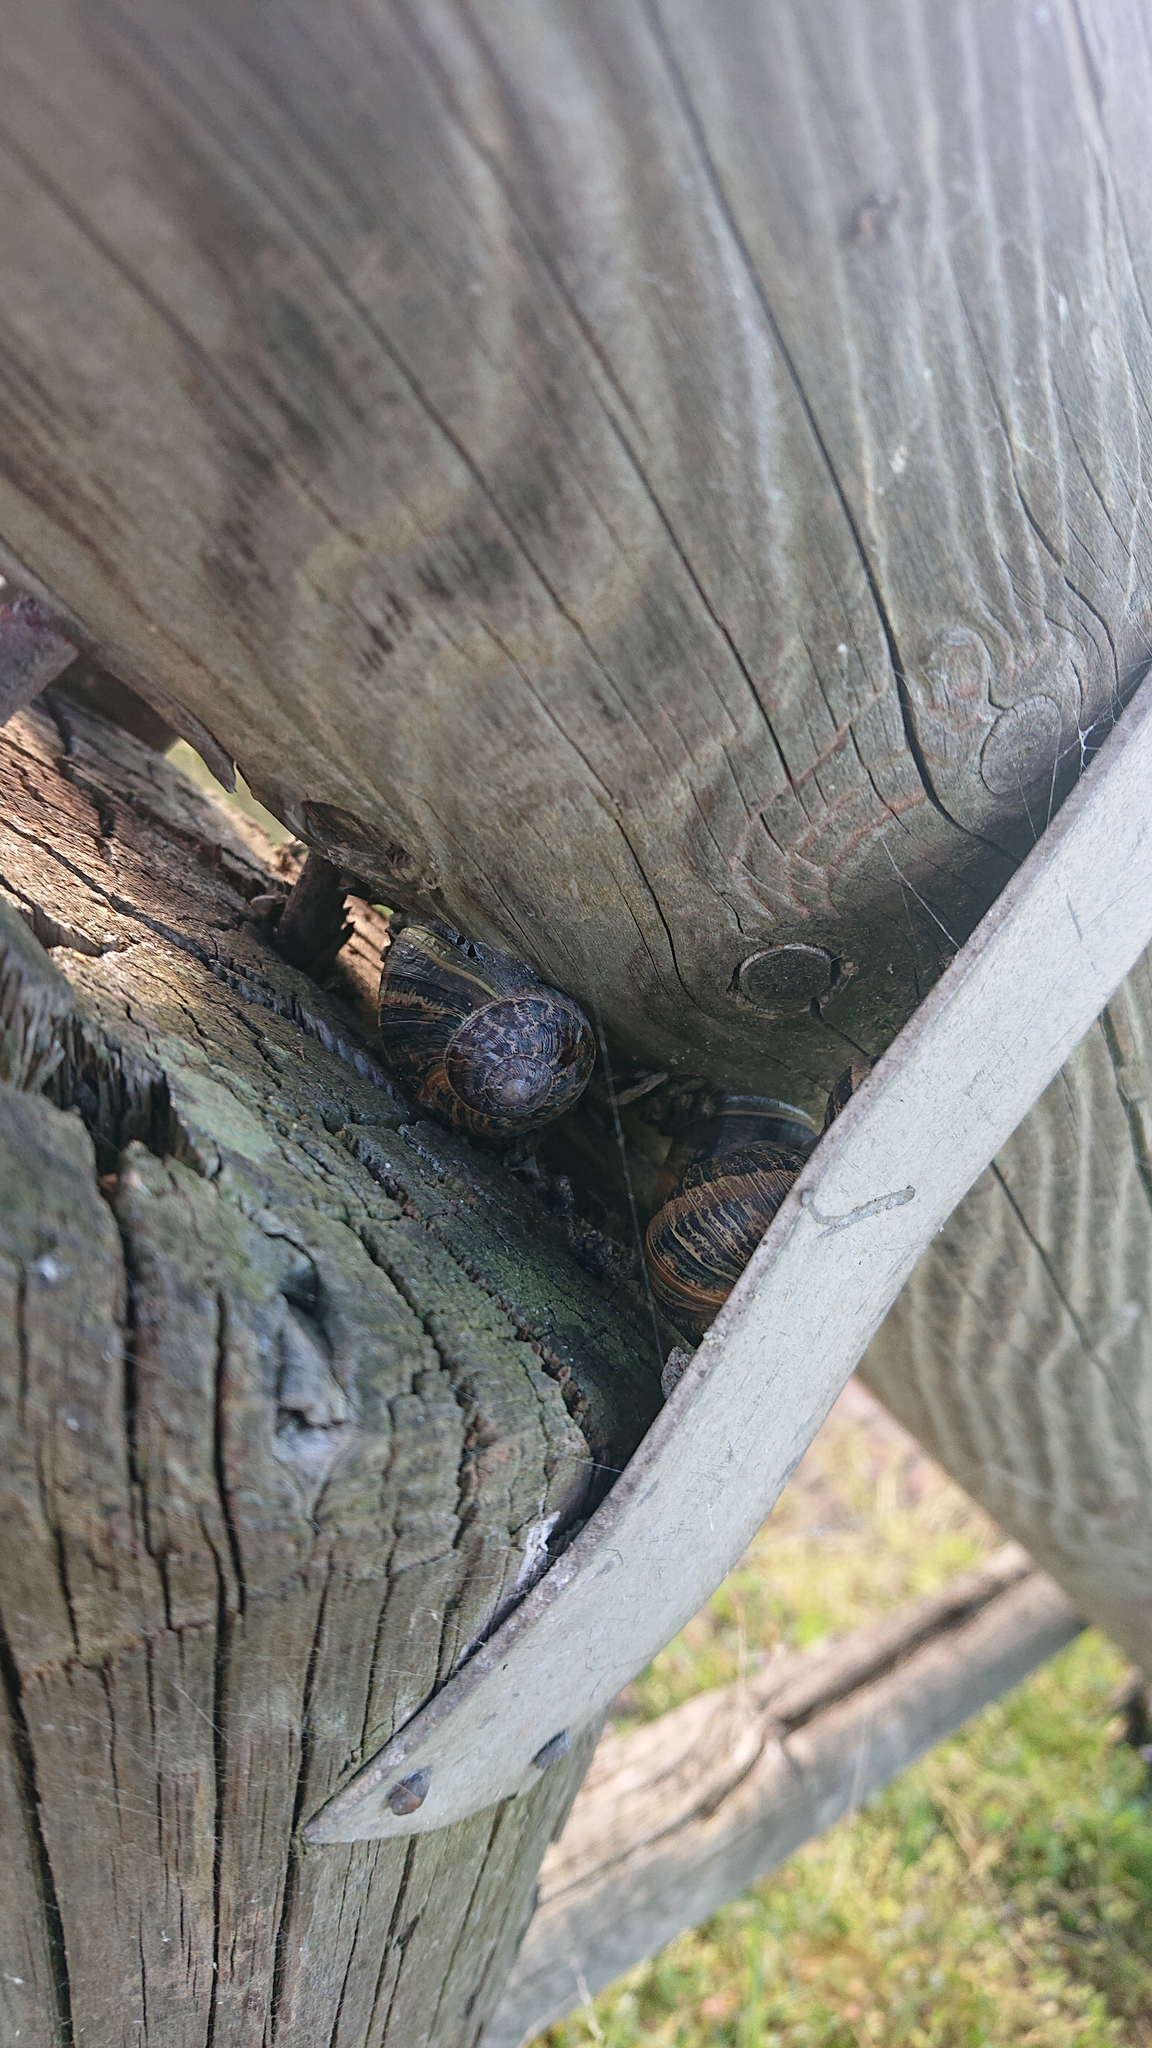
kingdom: Animalia
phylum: Mollusca
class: Gastropoda
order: Stylommatophora
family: Helicidae
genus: Cornu
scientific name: Cornu aspersum
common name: Brown garden snail
